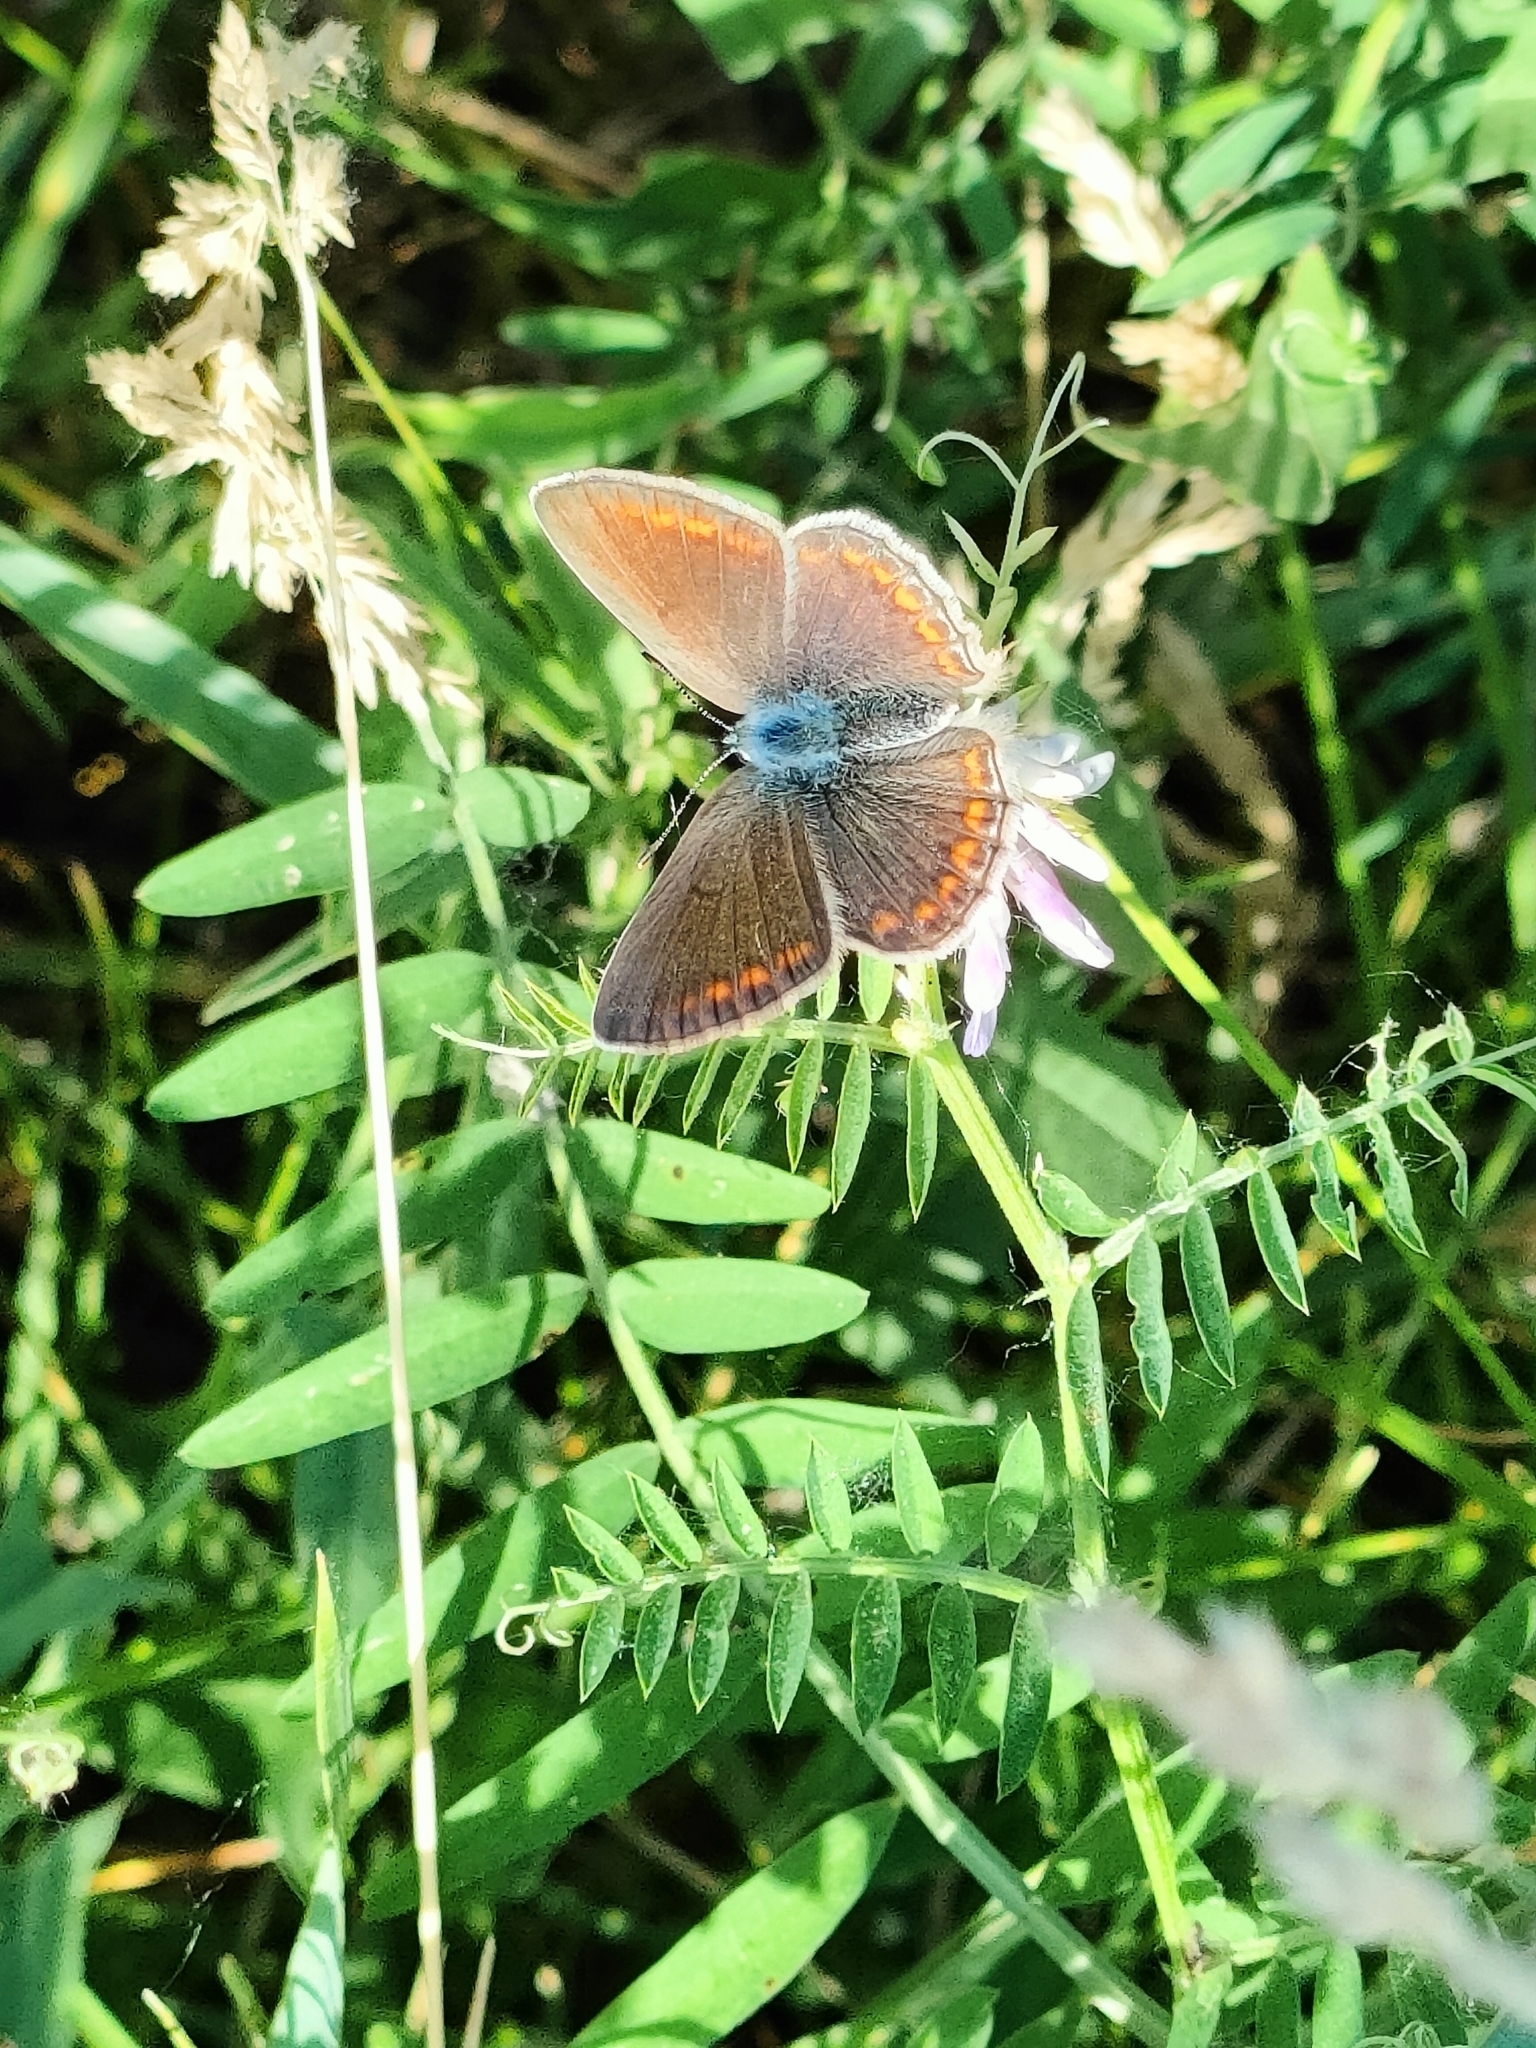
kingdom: Animalia
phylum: Arthropoda
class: Insecta
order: Lepidoptera
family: Lycaenidae
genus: Polyommatus
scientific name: Polyommatus icarus
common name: Common blue
